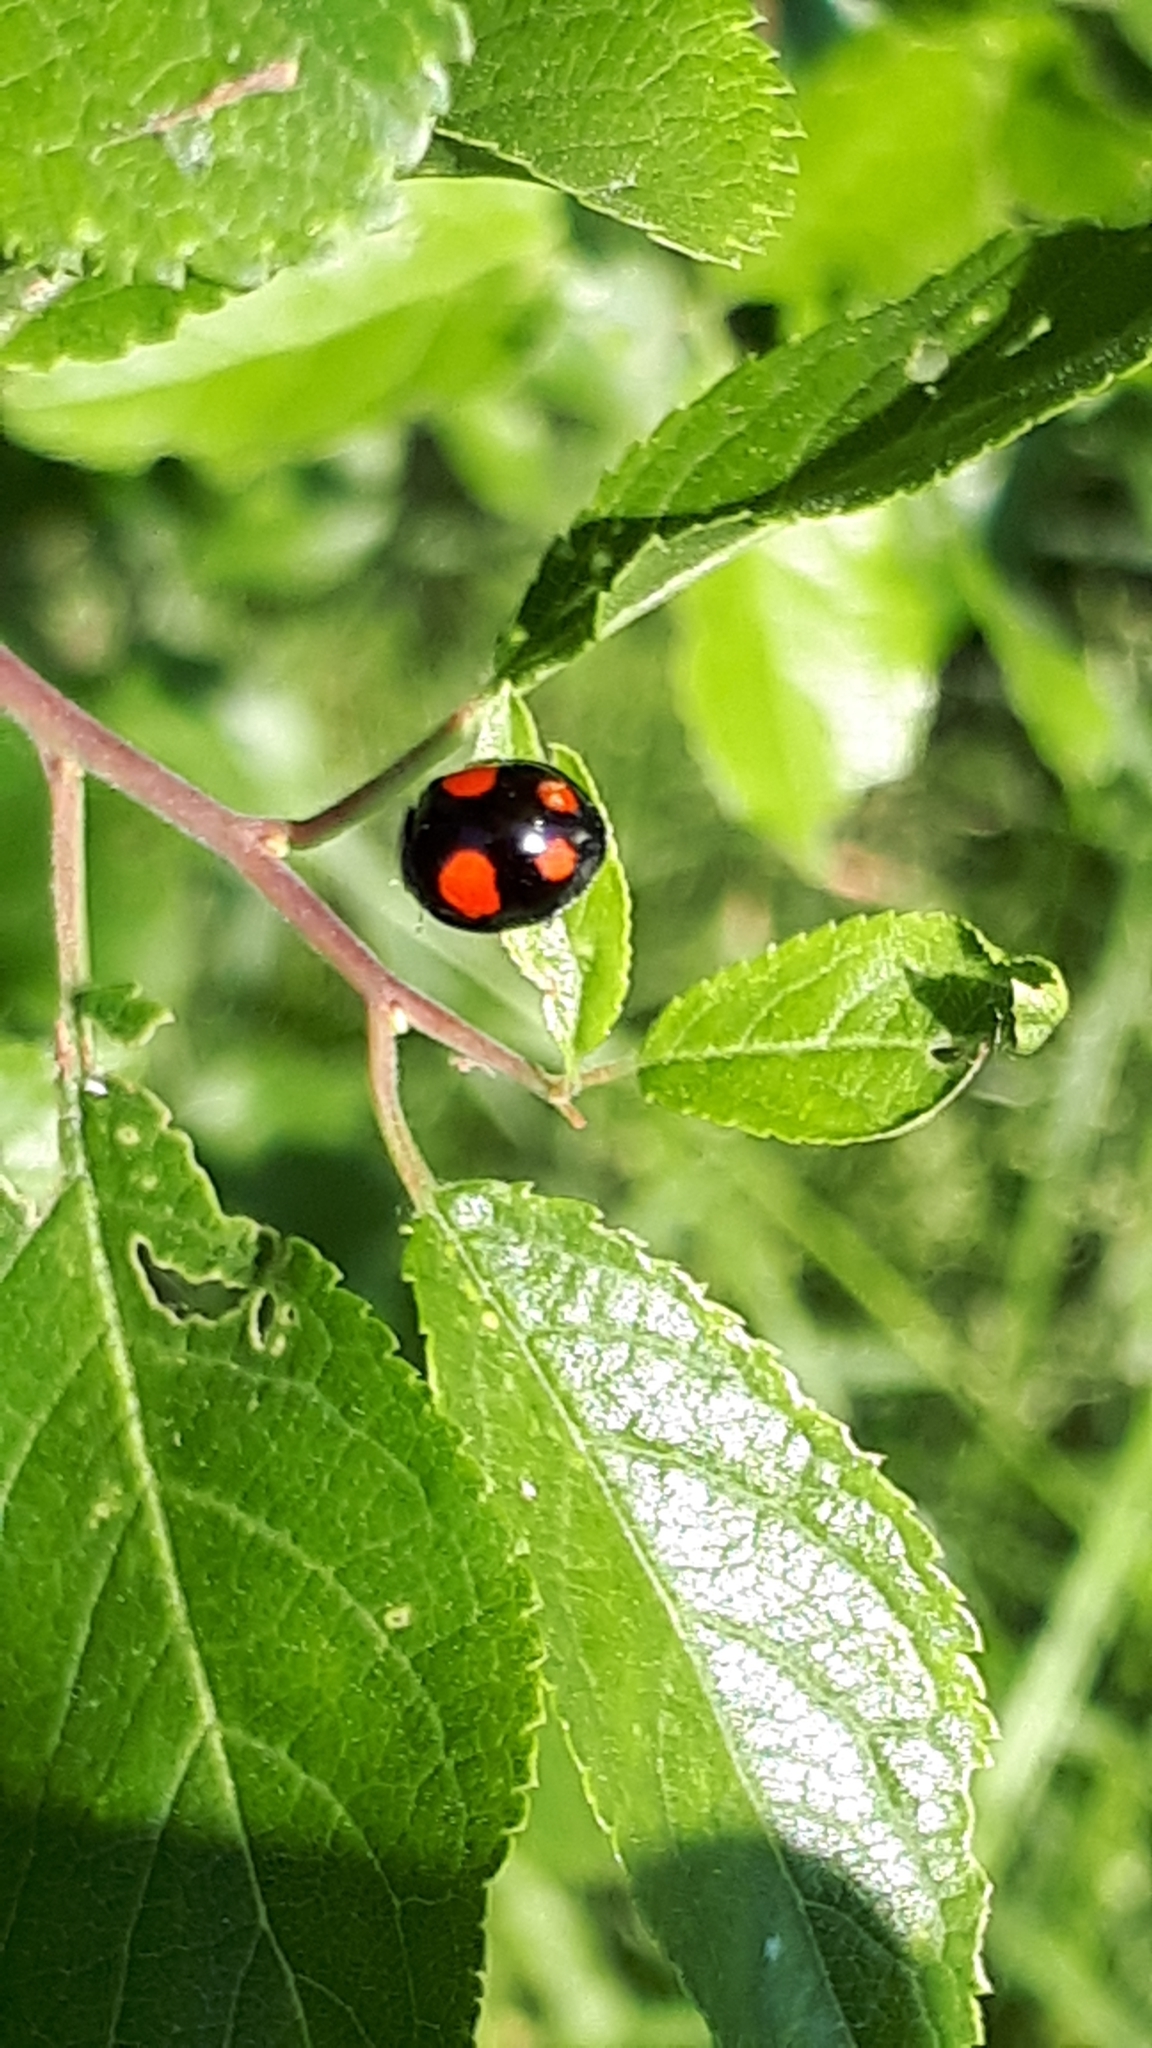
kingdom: Animalia
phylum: Arthropoda
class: Insecta
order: Coleoptera
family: Coccinellidae
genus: Harmonia
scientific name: Harmonia axyridis
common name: Harlequin ladybird
